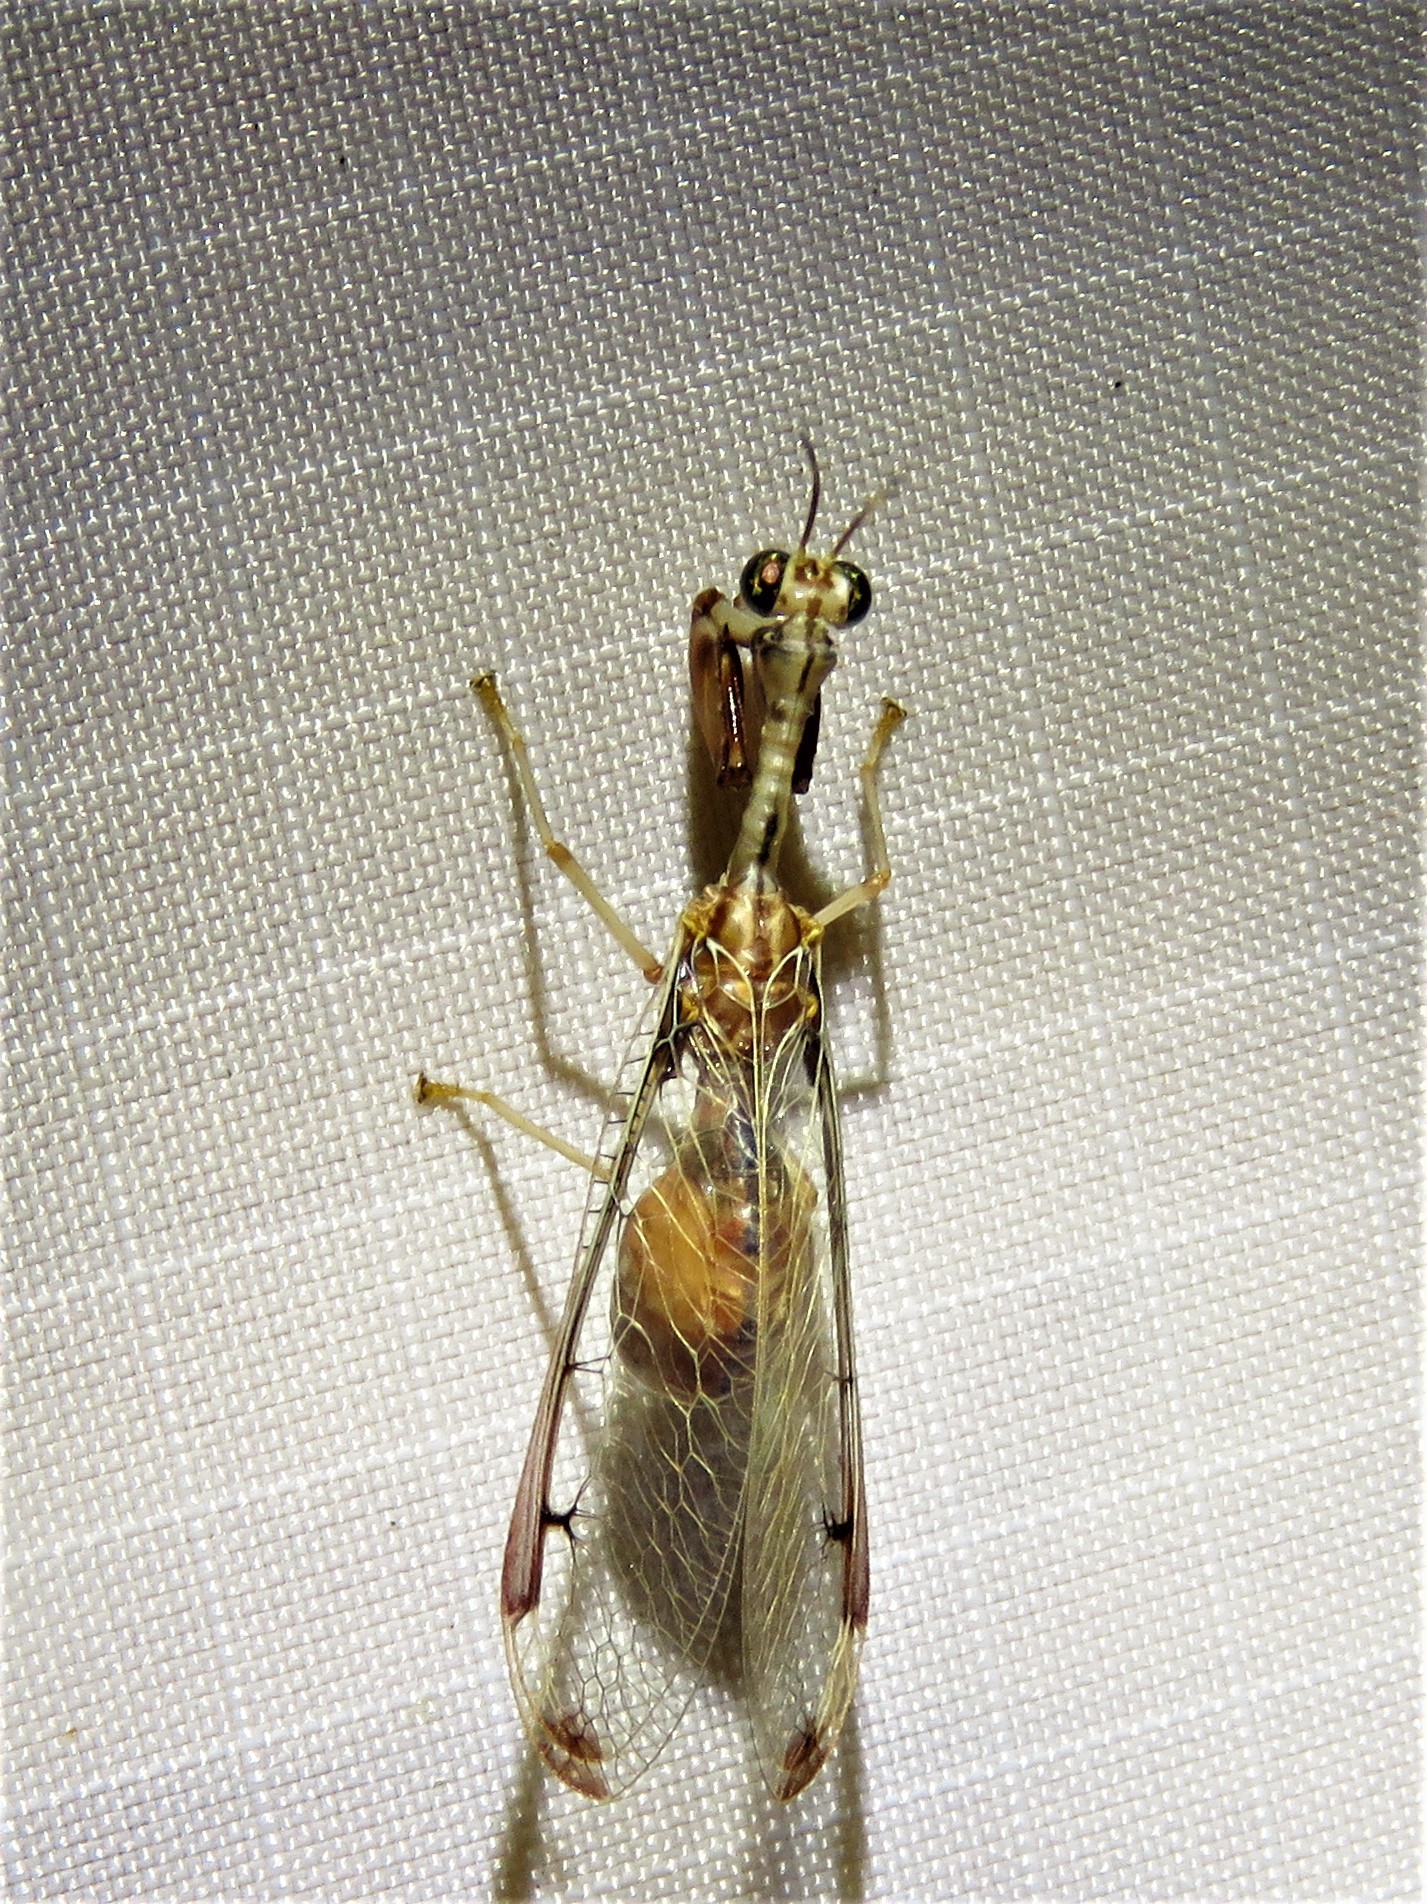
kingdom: Animalia
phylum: Arthropoda
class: Insecta
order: Neuroptera
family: Mantispidae
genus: Dicromantispa
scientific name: Dicromantispa interrupta
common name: Four-spotted mantidfly
